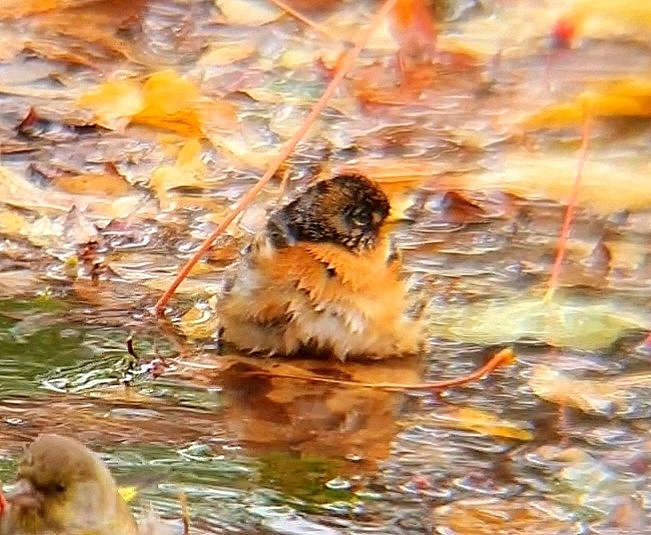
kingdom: Animalia
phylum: Chordata
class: Aves
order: Passeriformes
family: Fringillidae
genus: Fringilla
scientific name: Fringilla montifringilla
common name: Brambling
